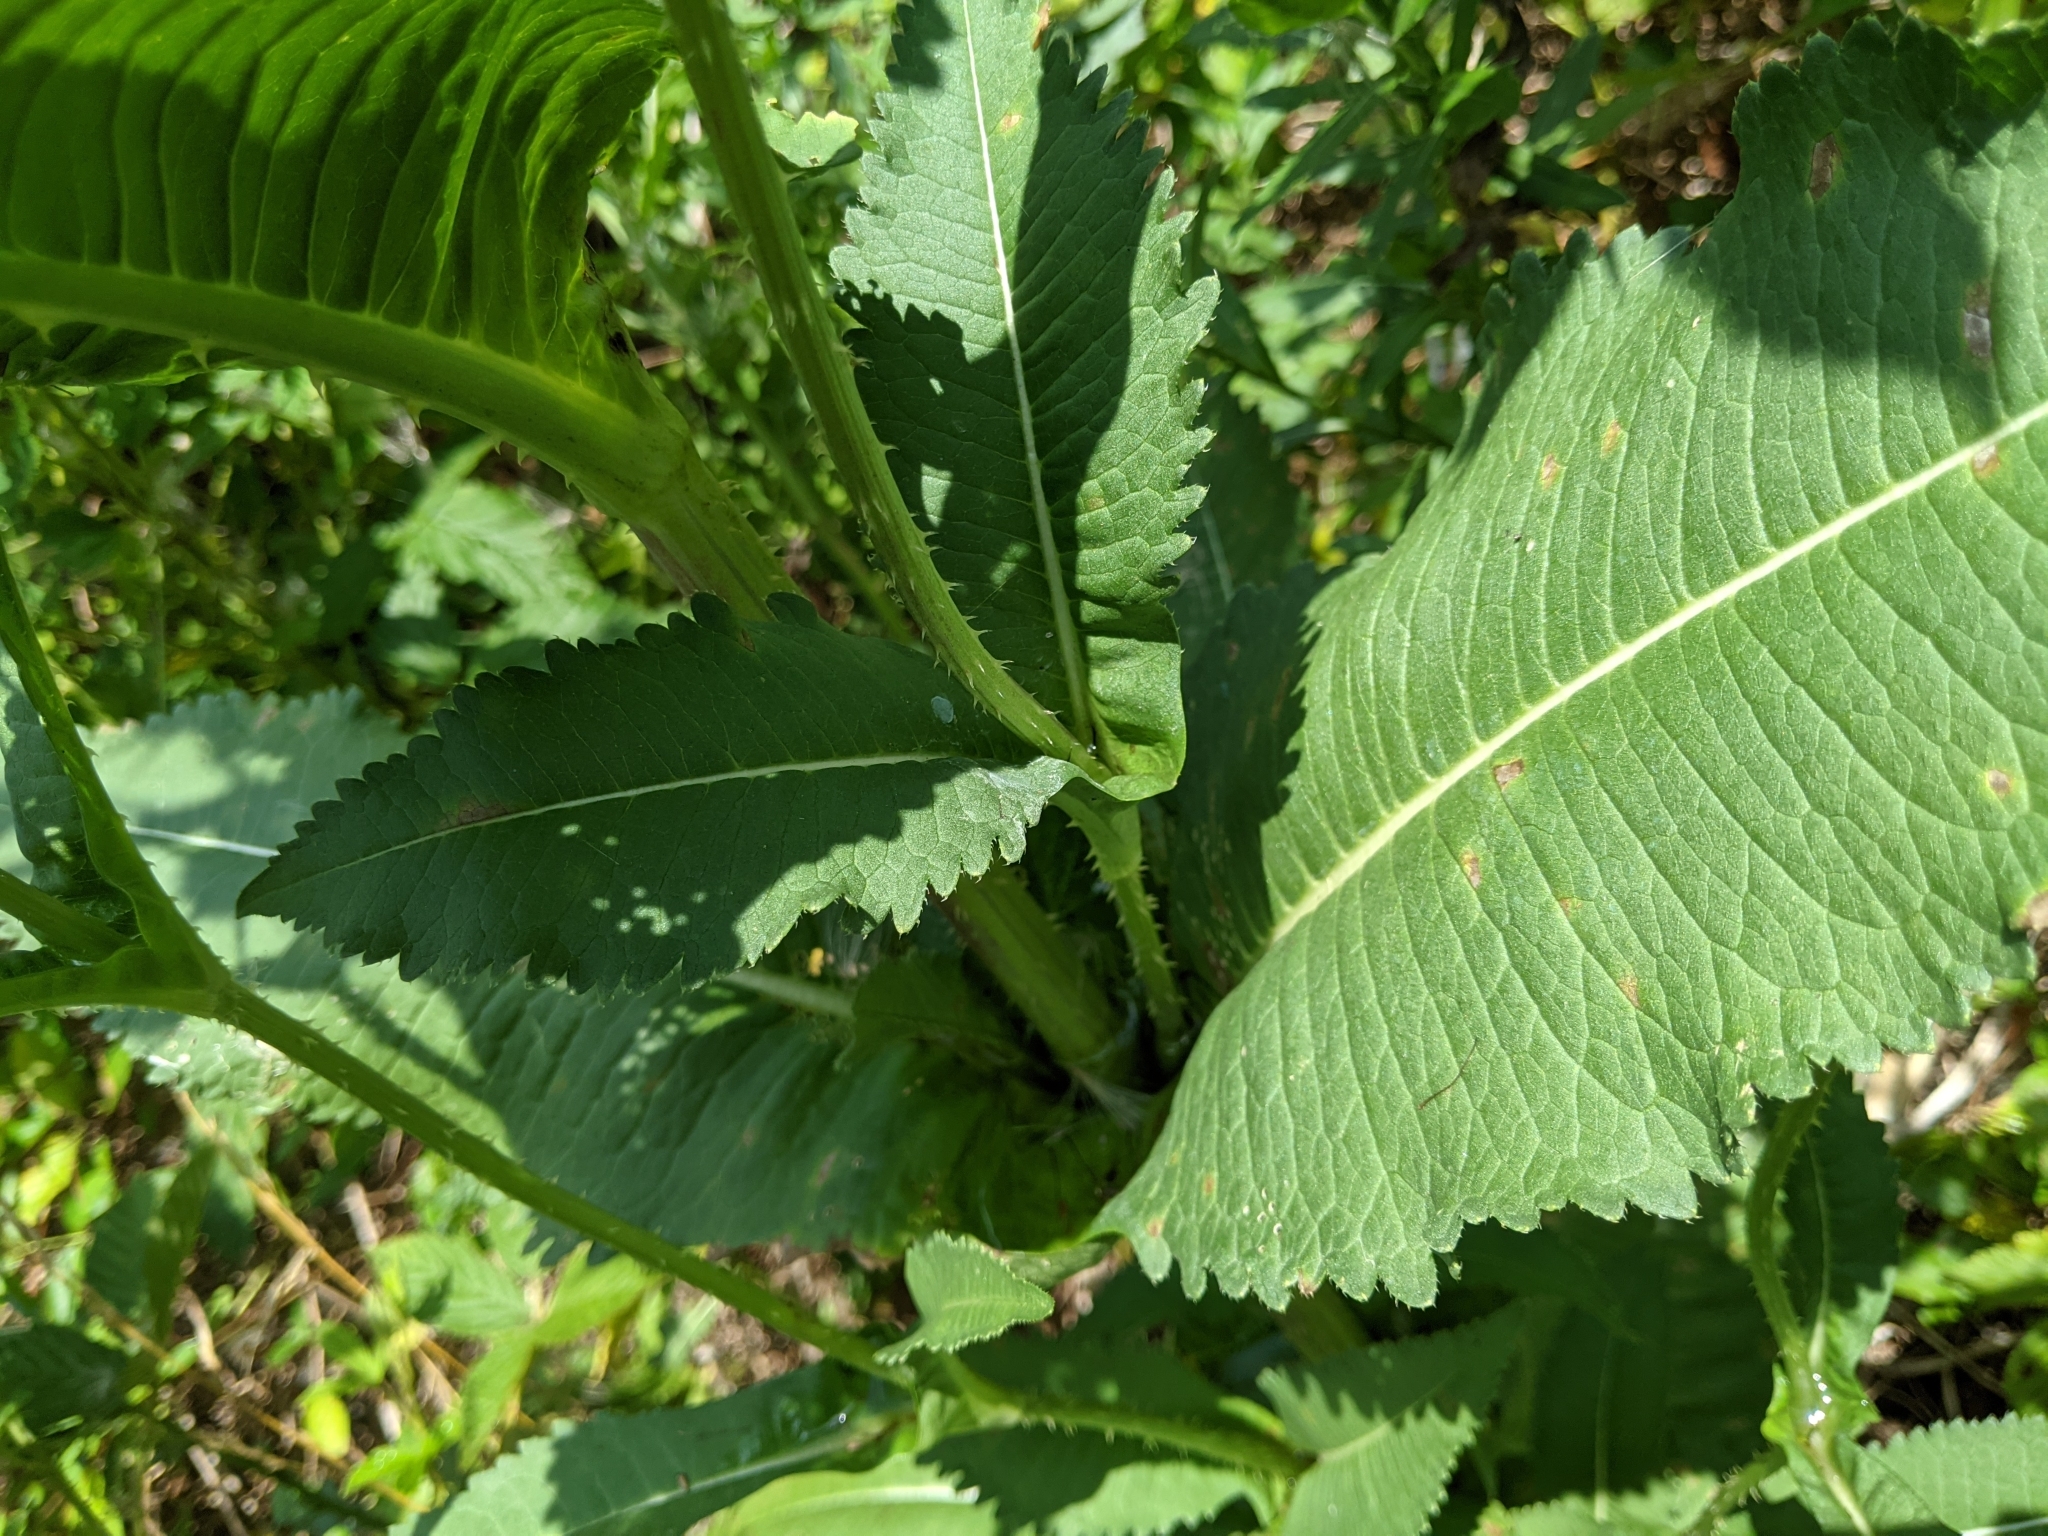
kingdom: Plantae
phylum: Tracheophyta
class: Magnoliopsida
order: Dipsacales
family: Caprifoliaceae
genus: Dipsacus
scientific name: Dipsacus laciniatus
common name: Cut-leaved teasel
